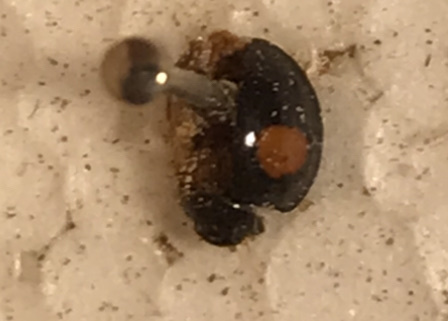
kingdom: Animalia
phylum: Arthropoda
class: Insecta
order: Coleoptera
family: Coccinellidae
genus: Chilocorus
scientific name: Chilocorus cacti
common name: Cactus lady beetle
